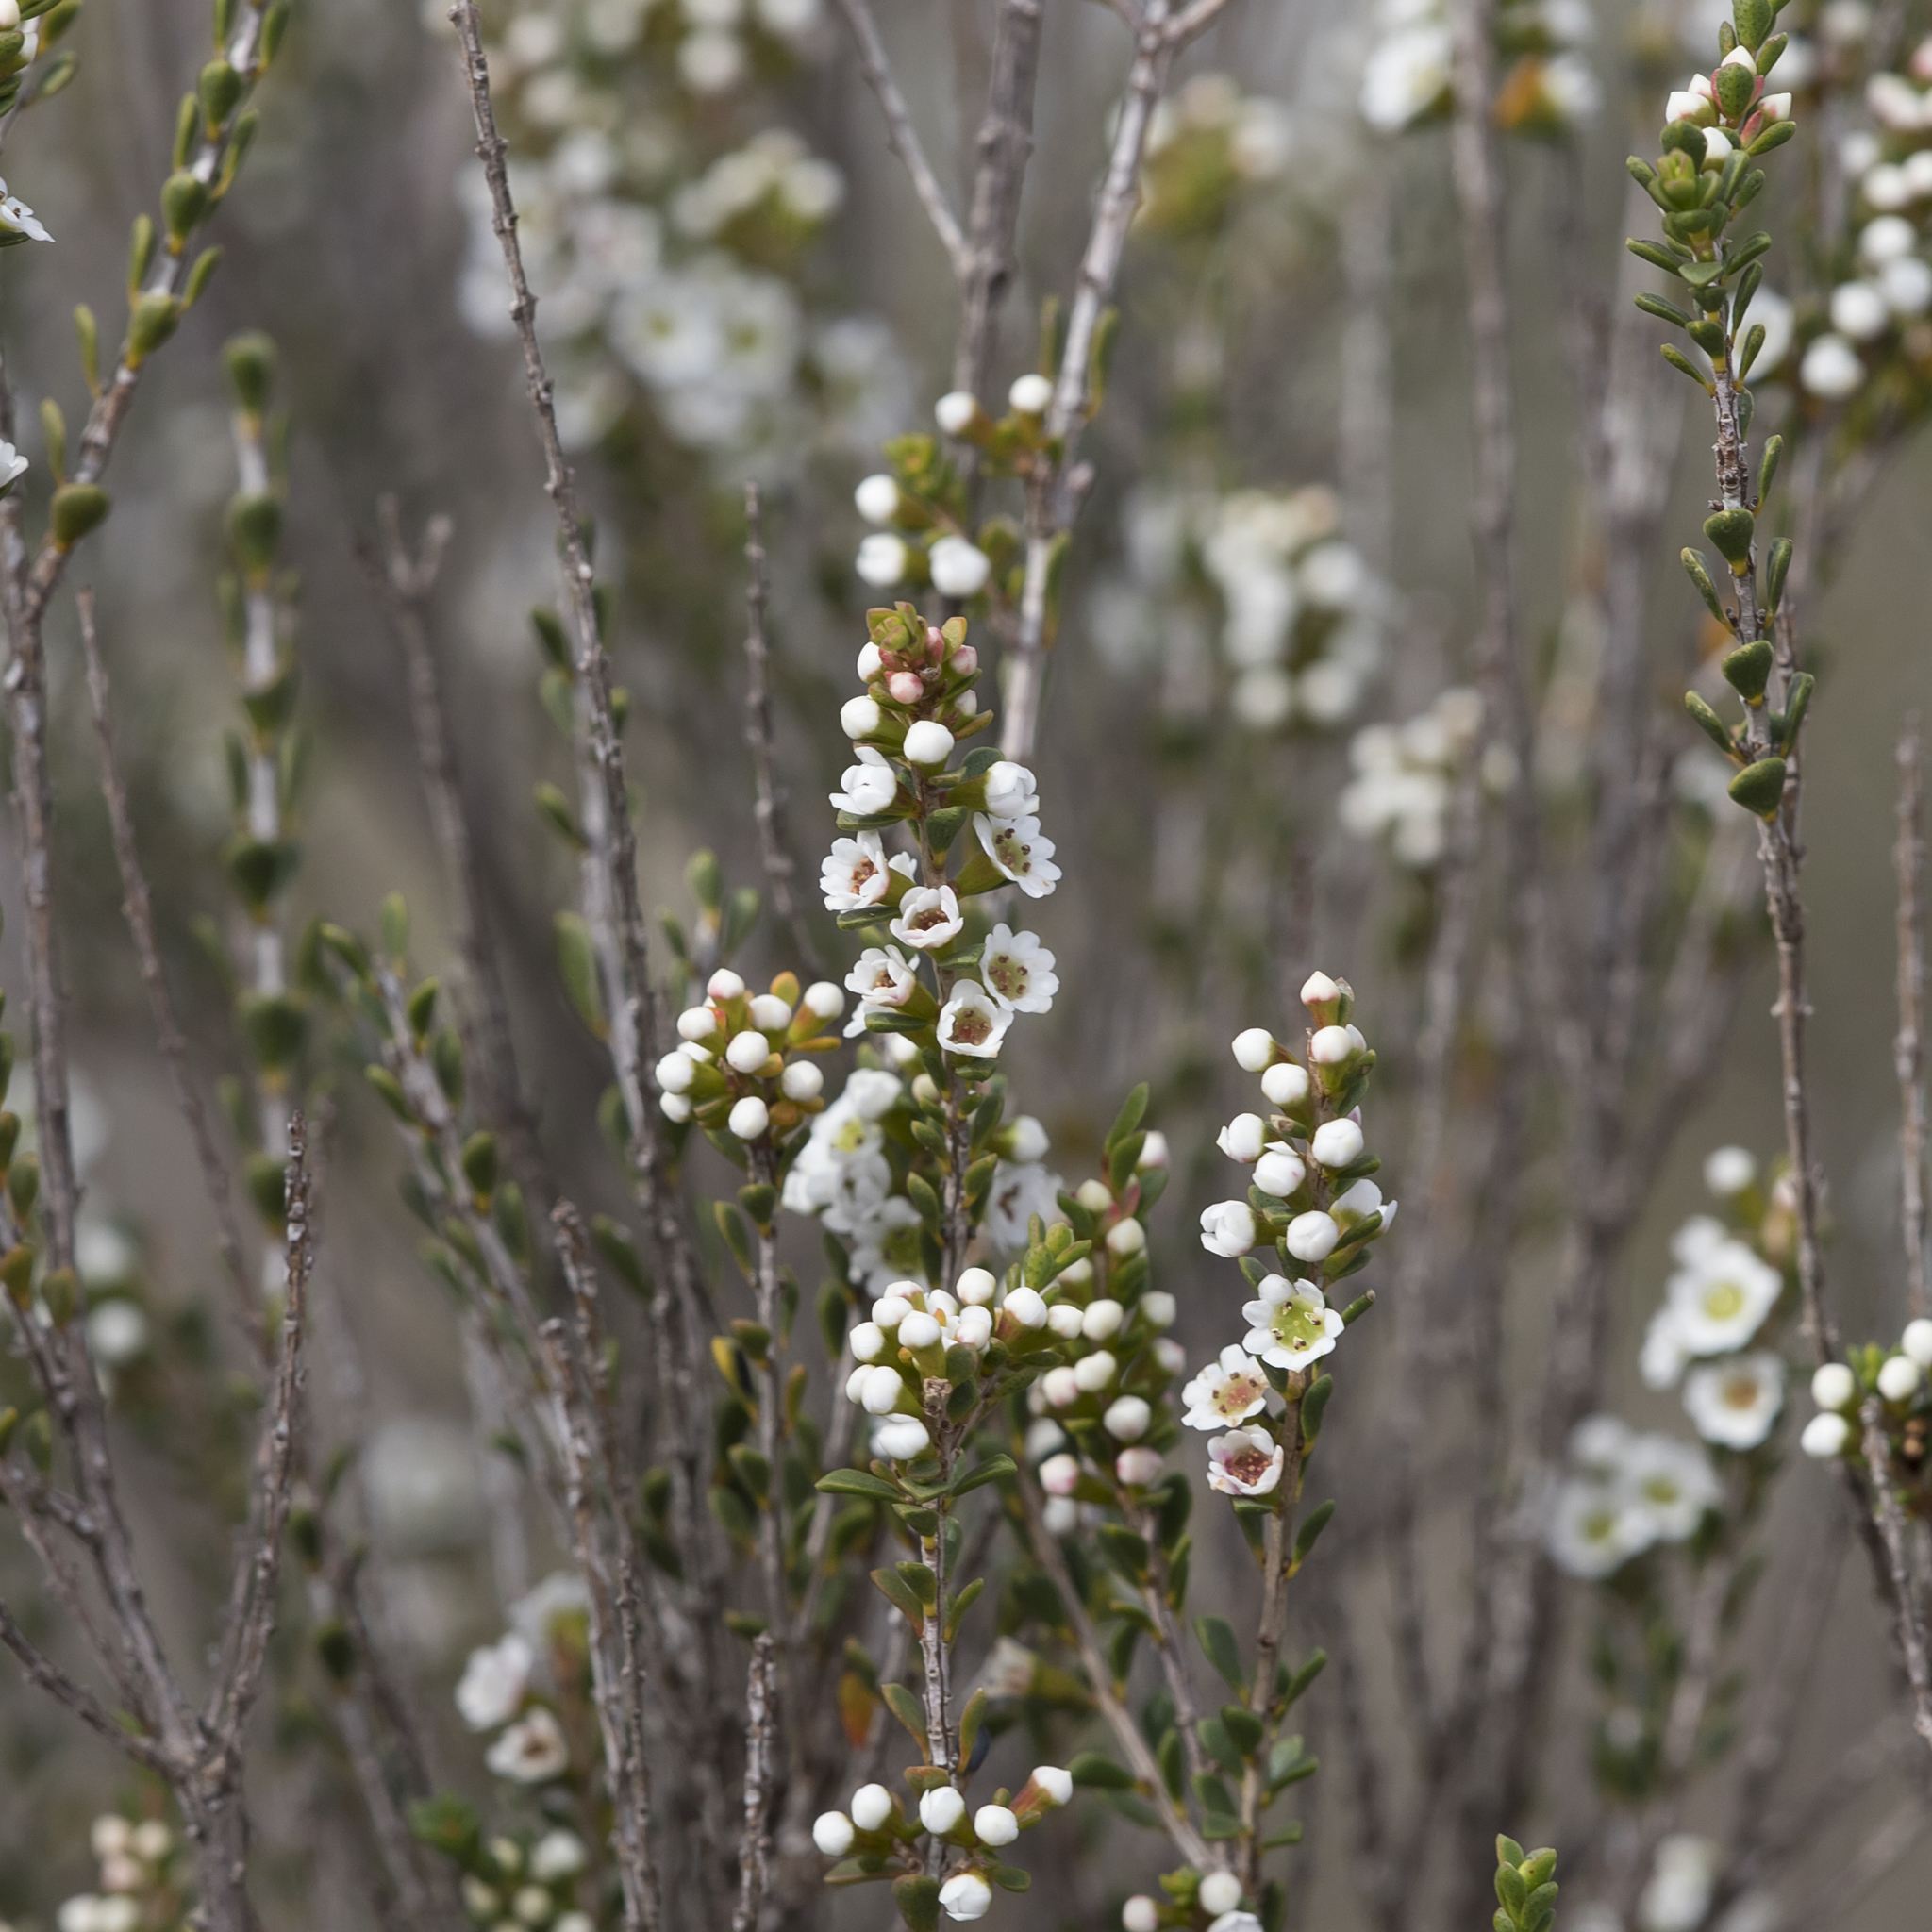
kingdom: Plantae
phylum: Tracheophyta
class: Magnoliopsida
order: Myrtales
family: Myrtaceae
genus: Thryptomene
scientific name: Thryptomene micrantha
